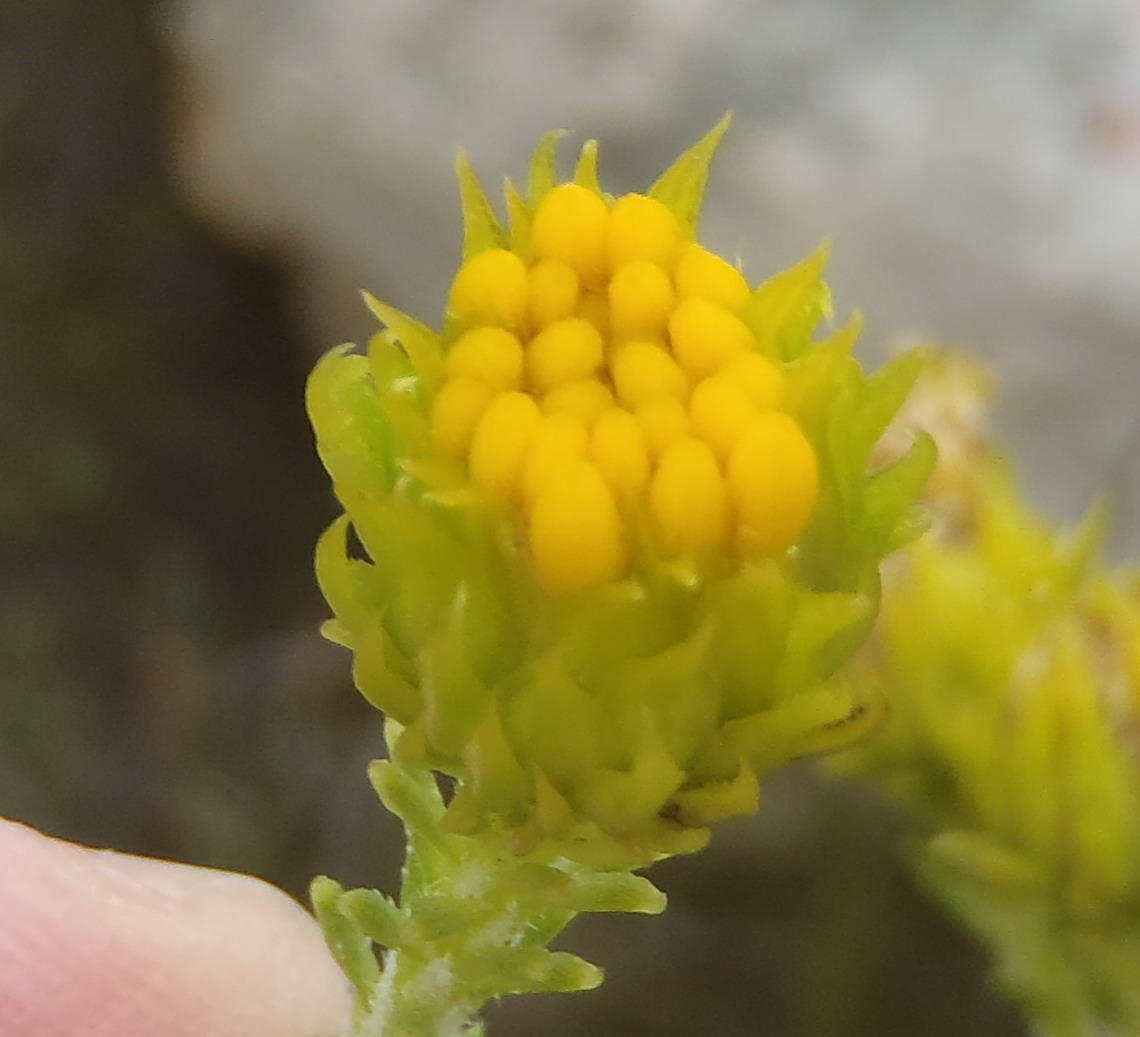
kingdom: Plantae
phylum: Tracheophyta
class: Magnoliopsida
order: Asterales
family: Asteraceae
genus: Pteronia
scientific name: Pteronia camphorata
